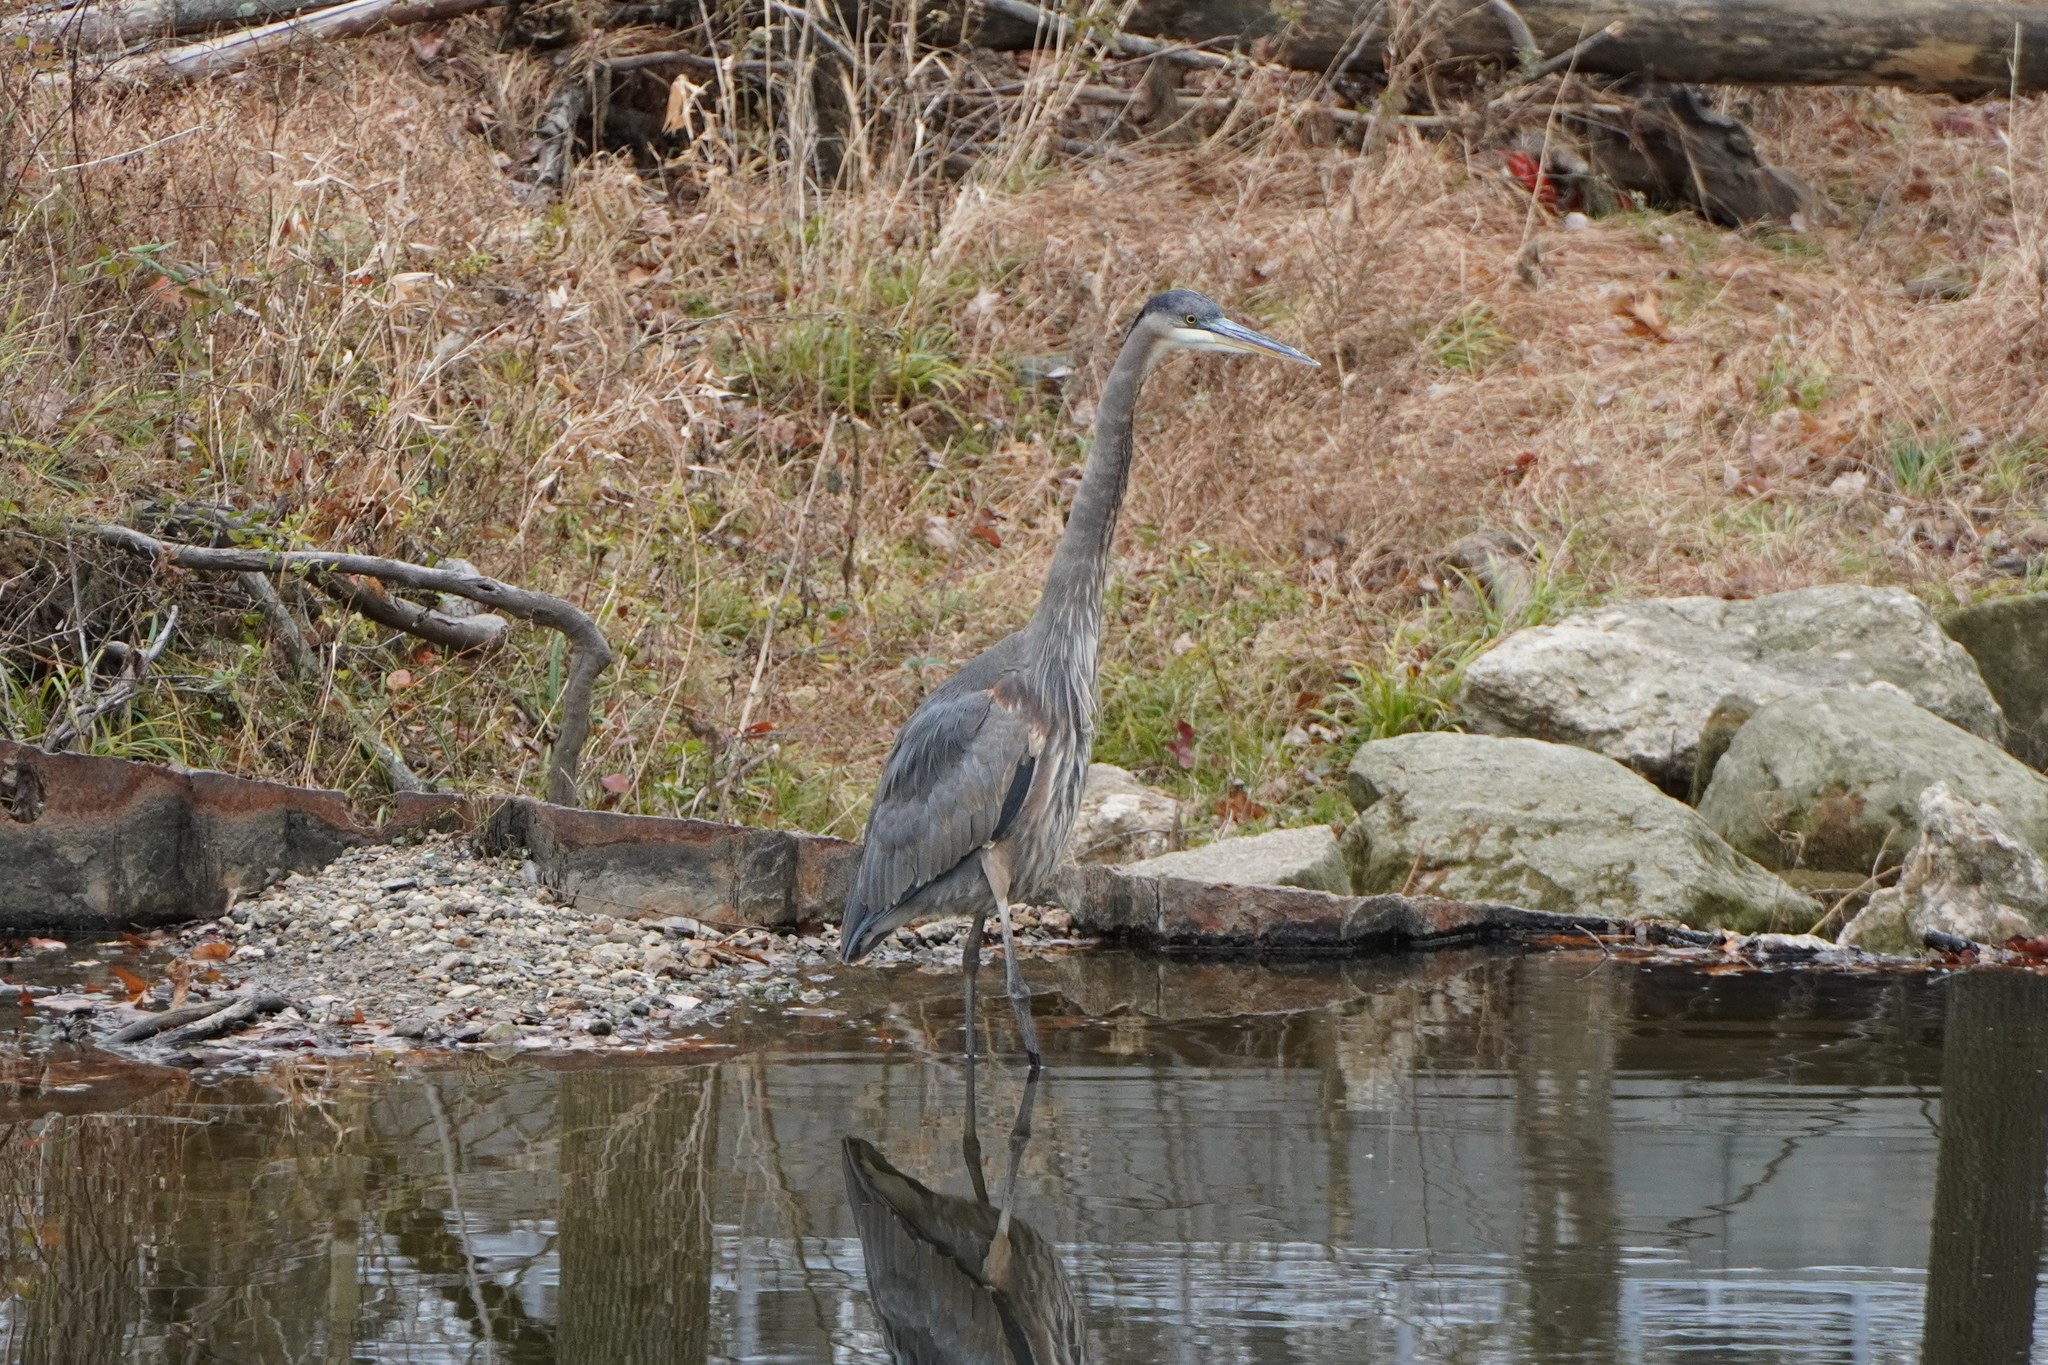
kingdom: Animalia
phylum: Chordata
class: Aves
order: Pelecaniformes
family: Ardeidae
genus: Ardea
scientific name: Ardea herodias
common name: Great blue heron
